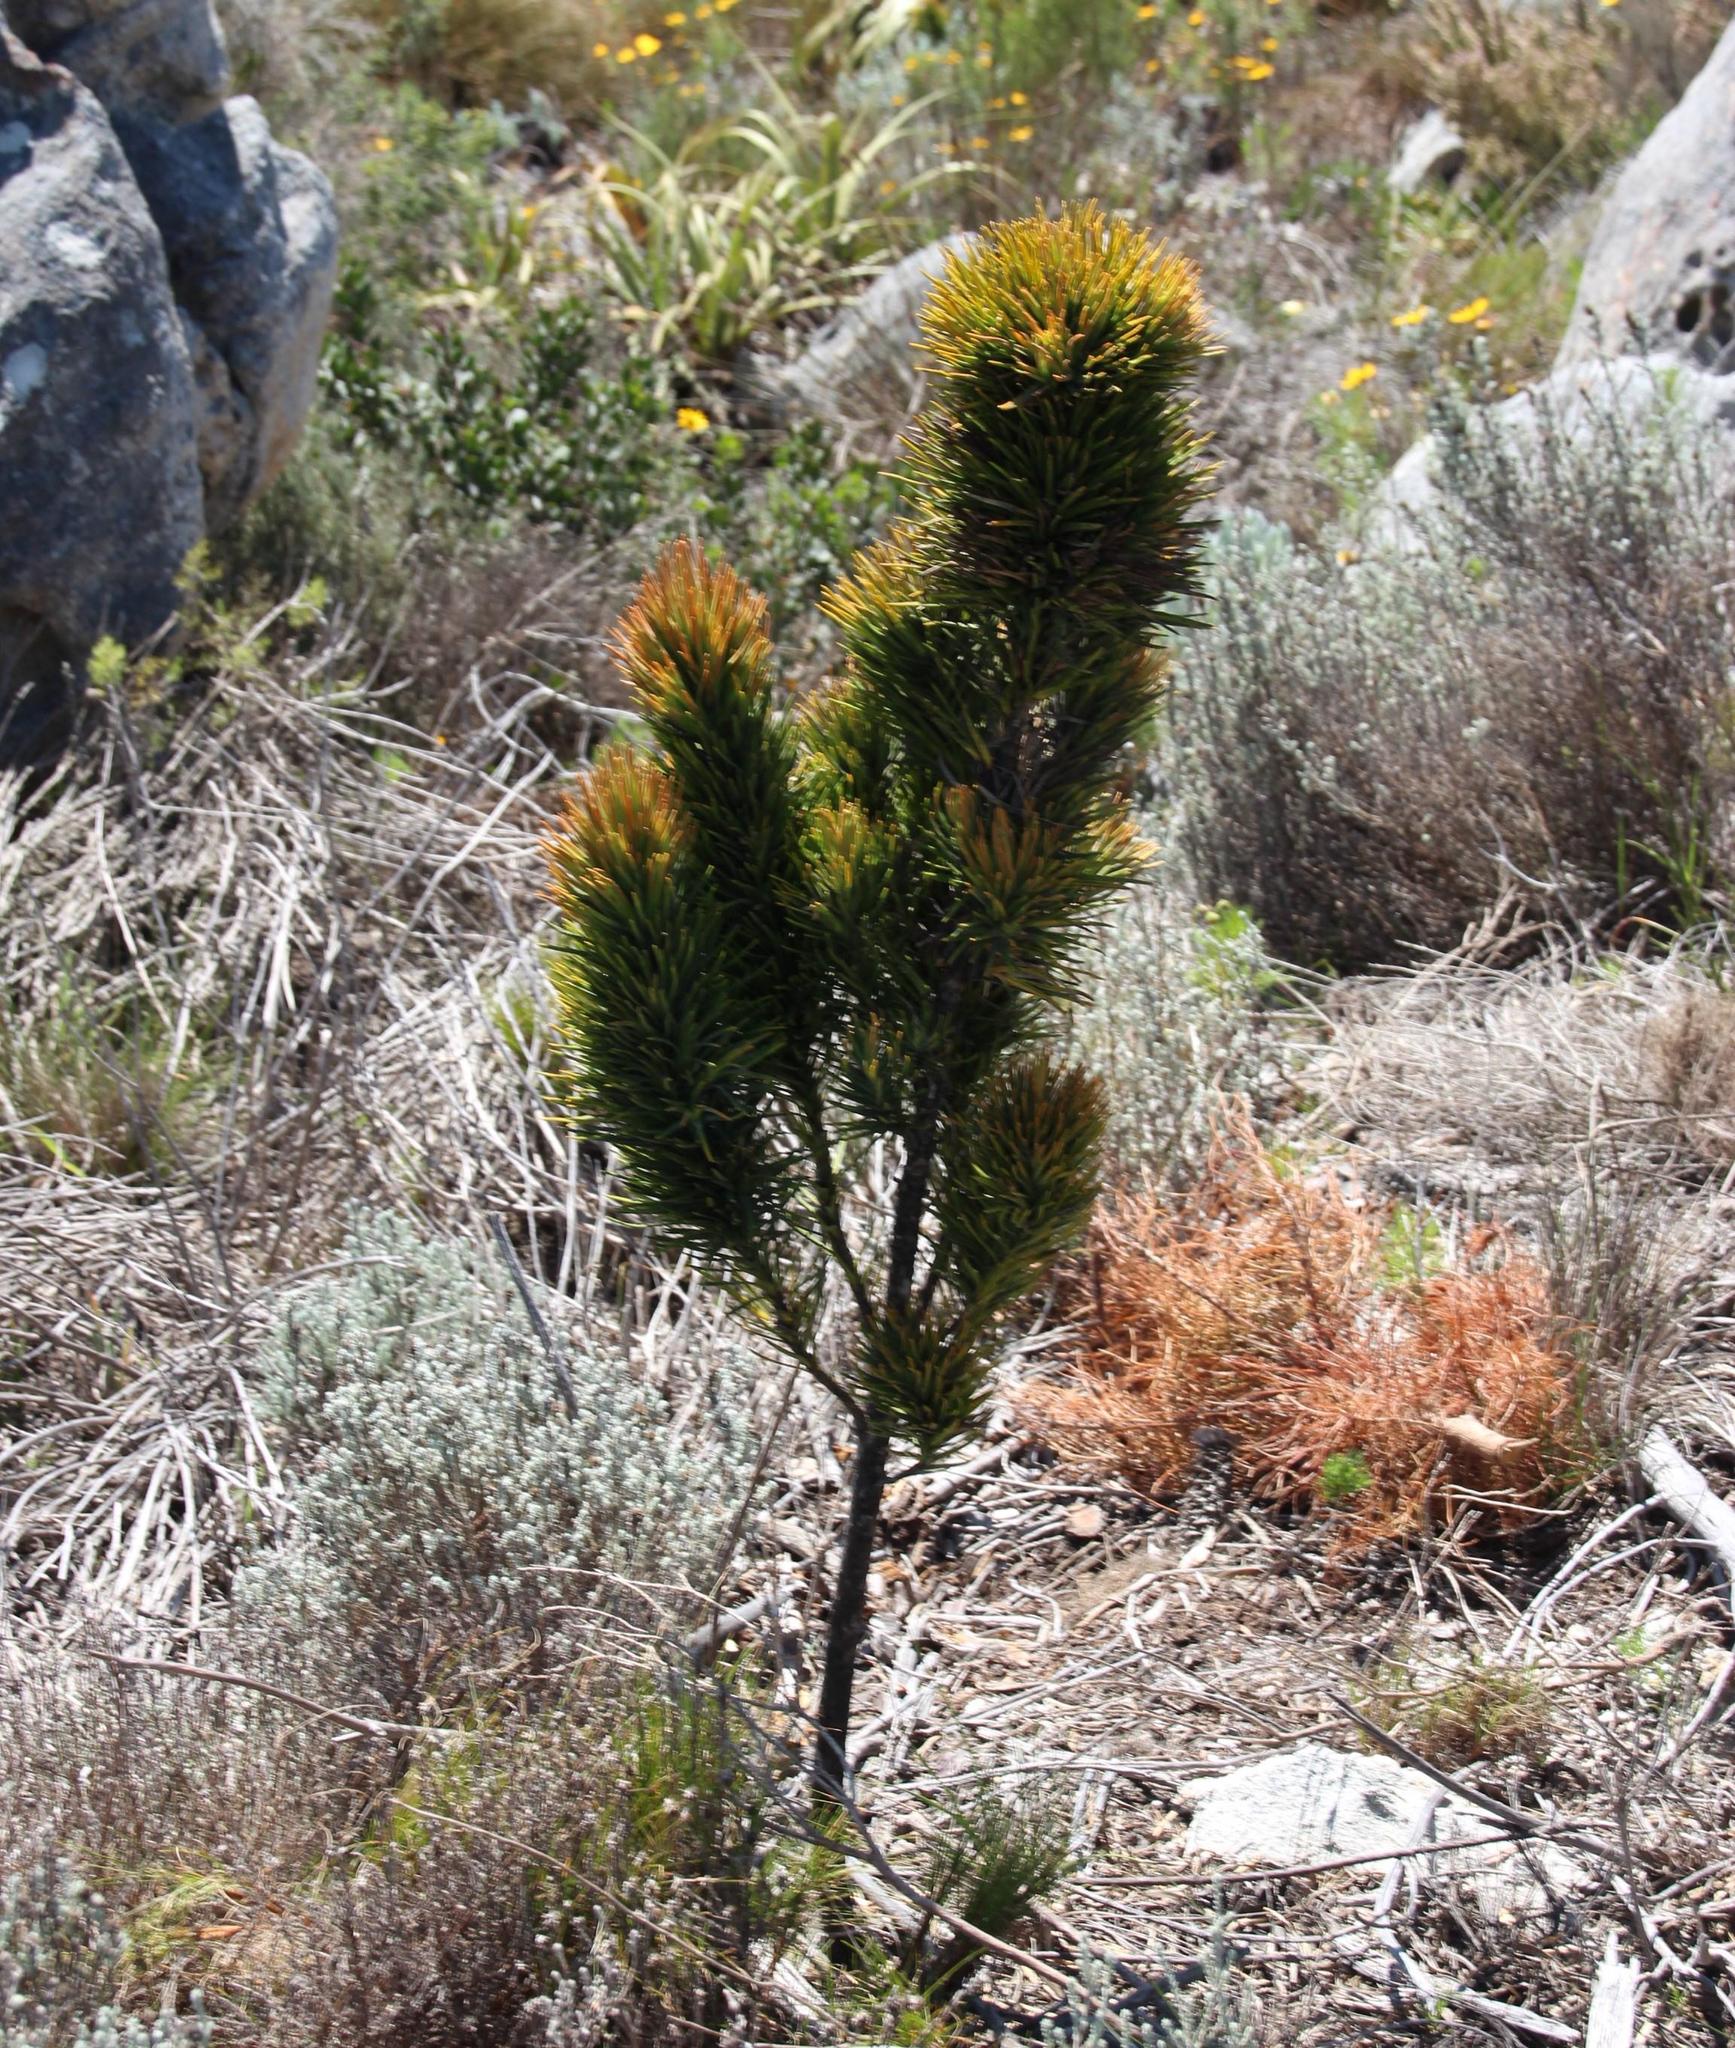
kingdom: Plantae
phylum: Tracheophyta
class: Magnoliopsida
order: Lamiales
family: Stilbaceae
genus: Retzia
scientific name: Retzia capensis
